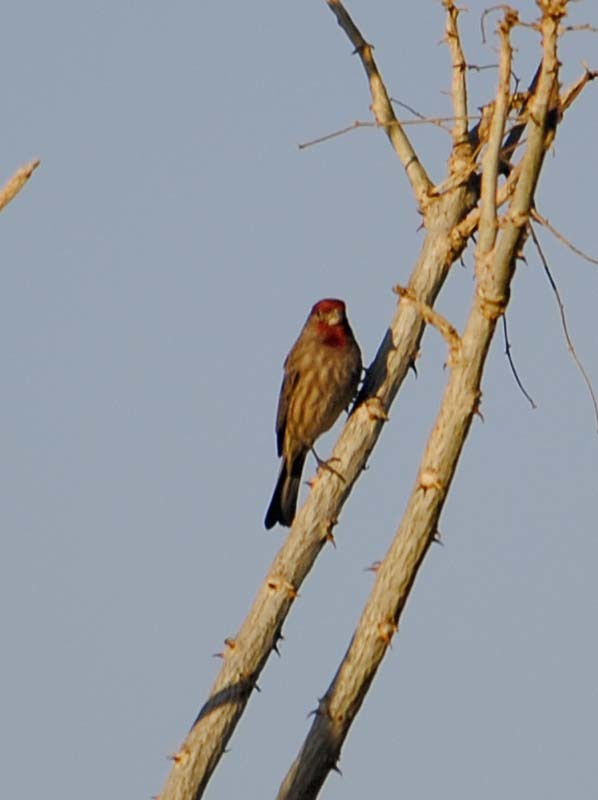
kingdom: Animalia
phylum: Chordata
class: Aves
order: Passeriformes
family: Fringillidae
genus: Haemorhous
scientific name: Haemorhous mexicanus
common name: House finch
